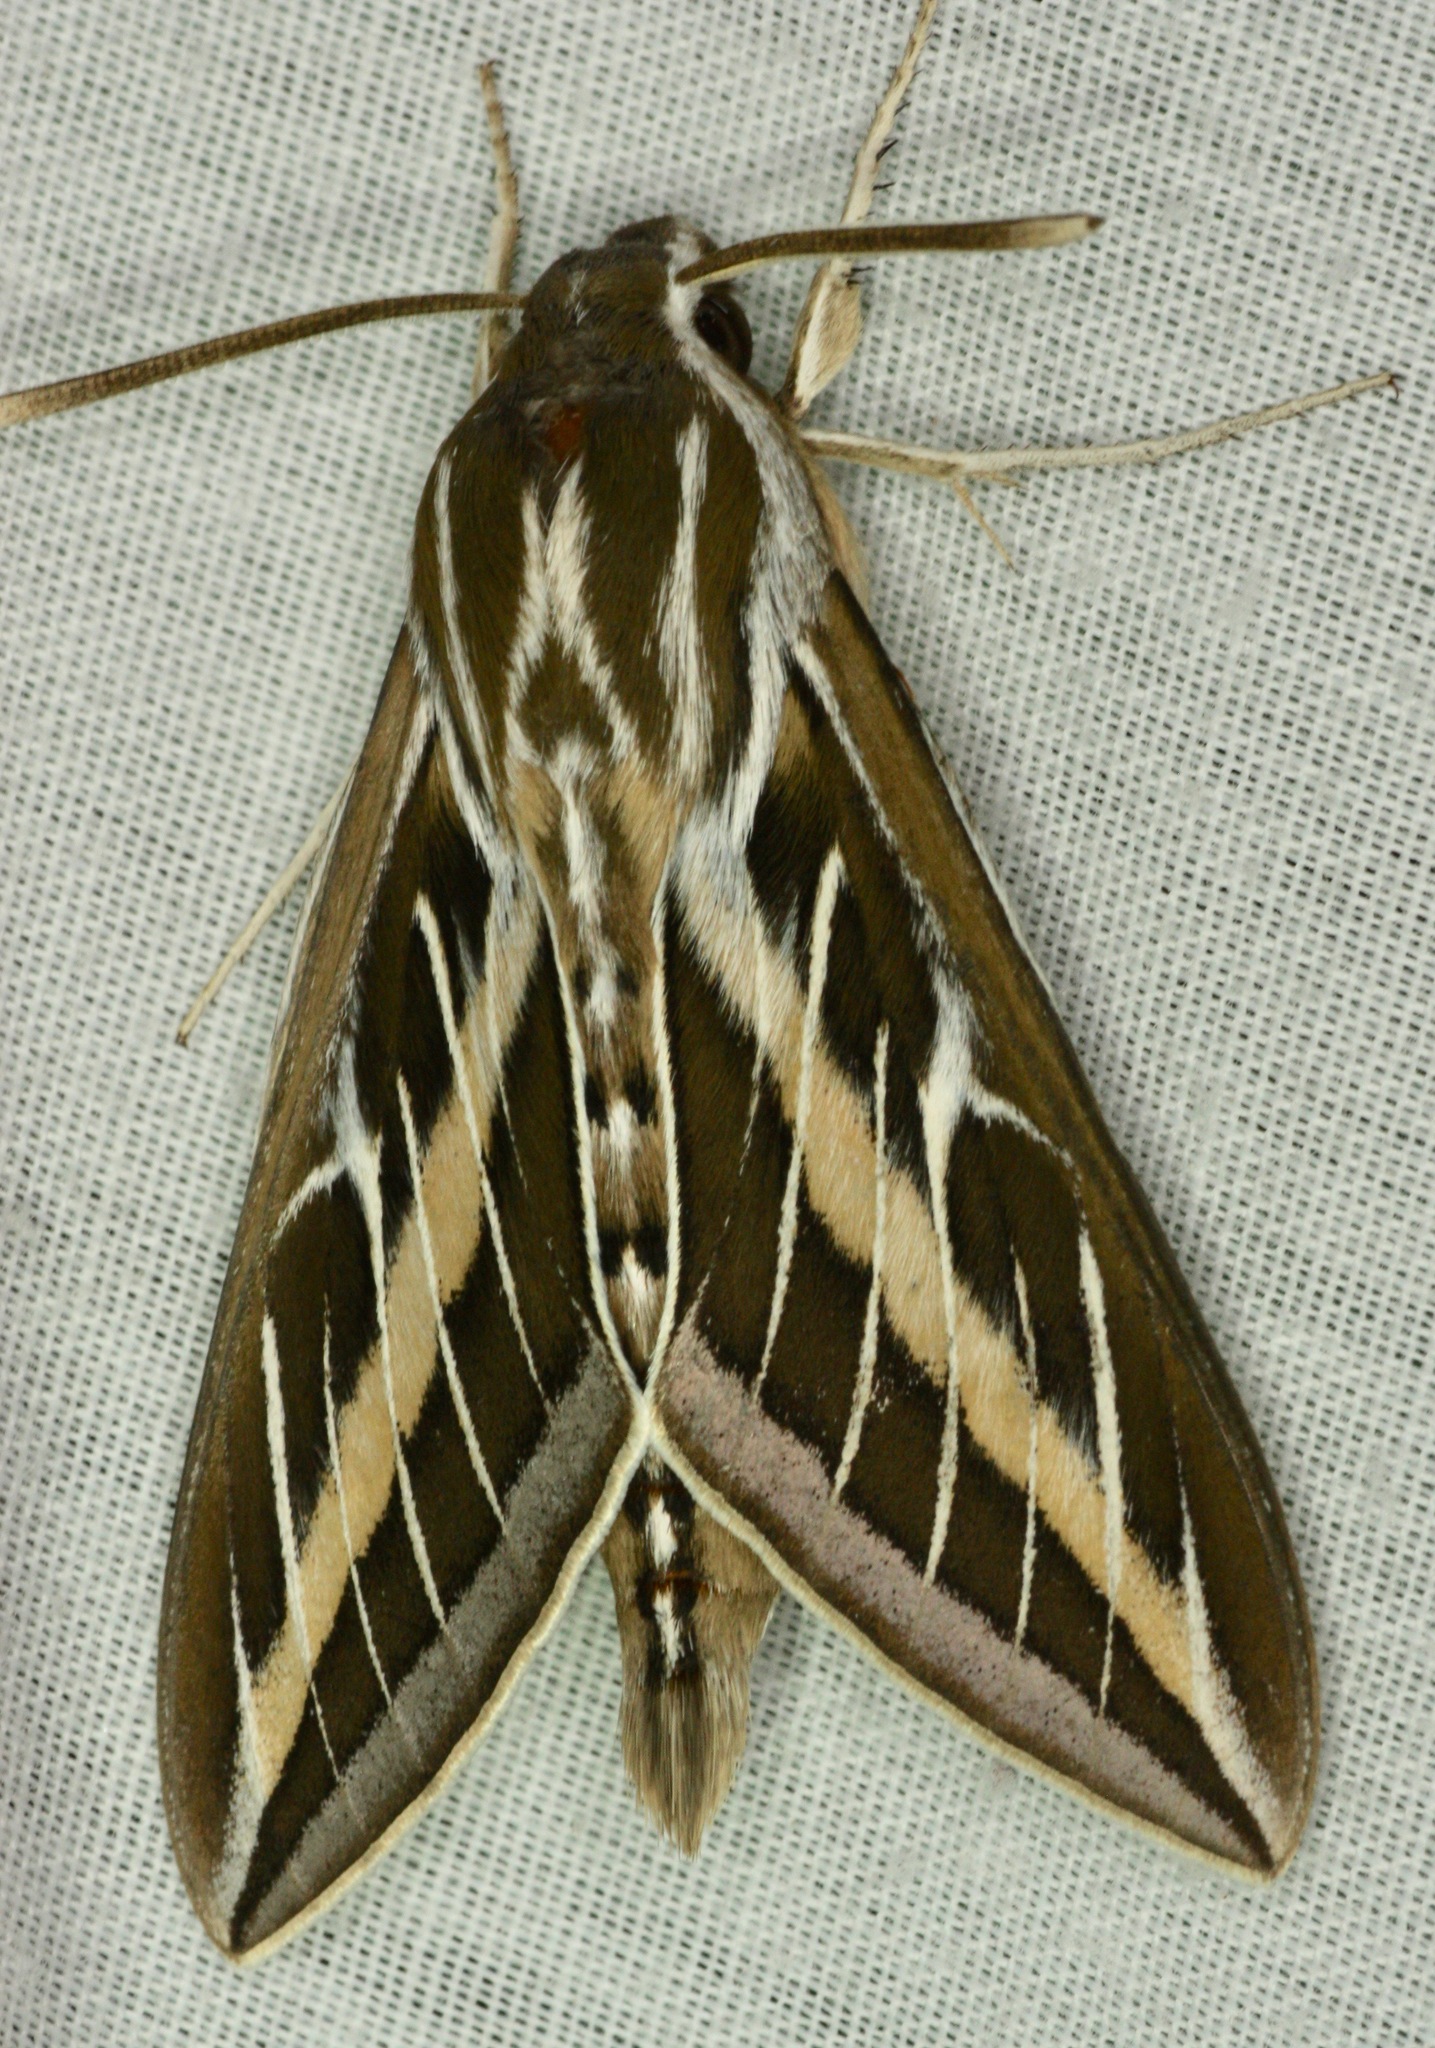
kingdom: Animalia
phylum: Arthropoda
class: Insecta
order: Lepidoptera
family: Sphingidae
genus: Hyles
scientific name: Hyles lineata
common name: White-lined sphinx
